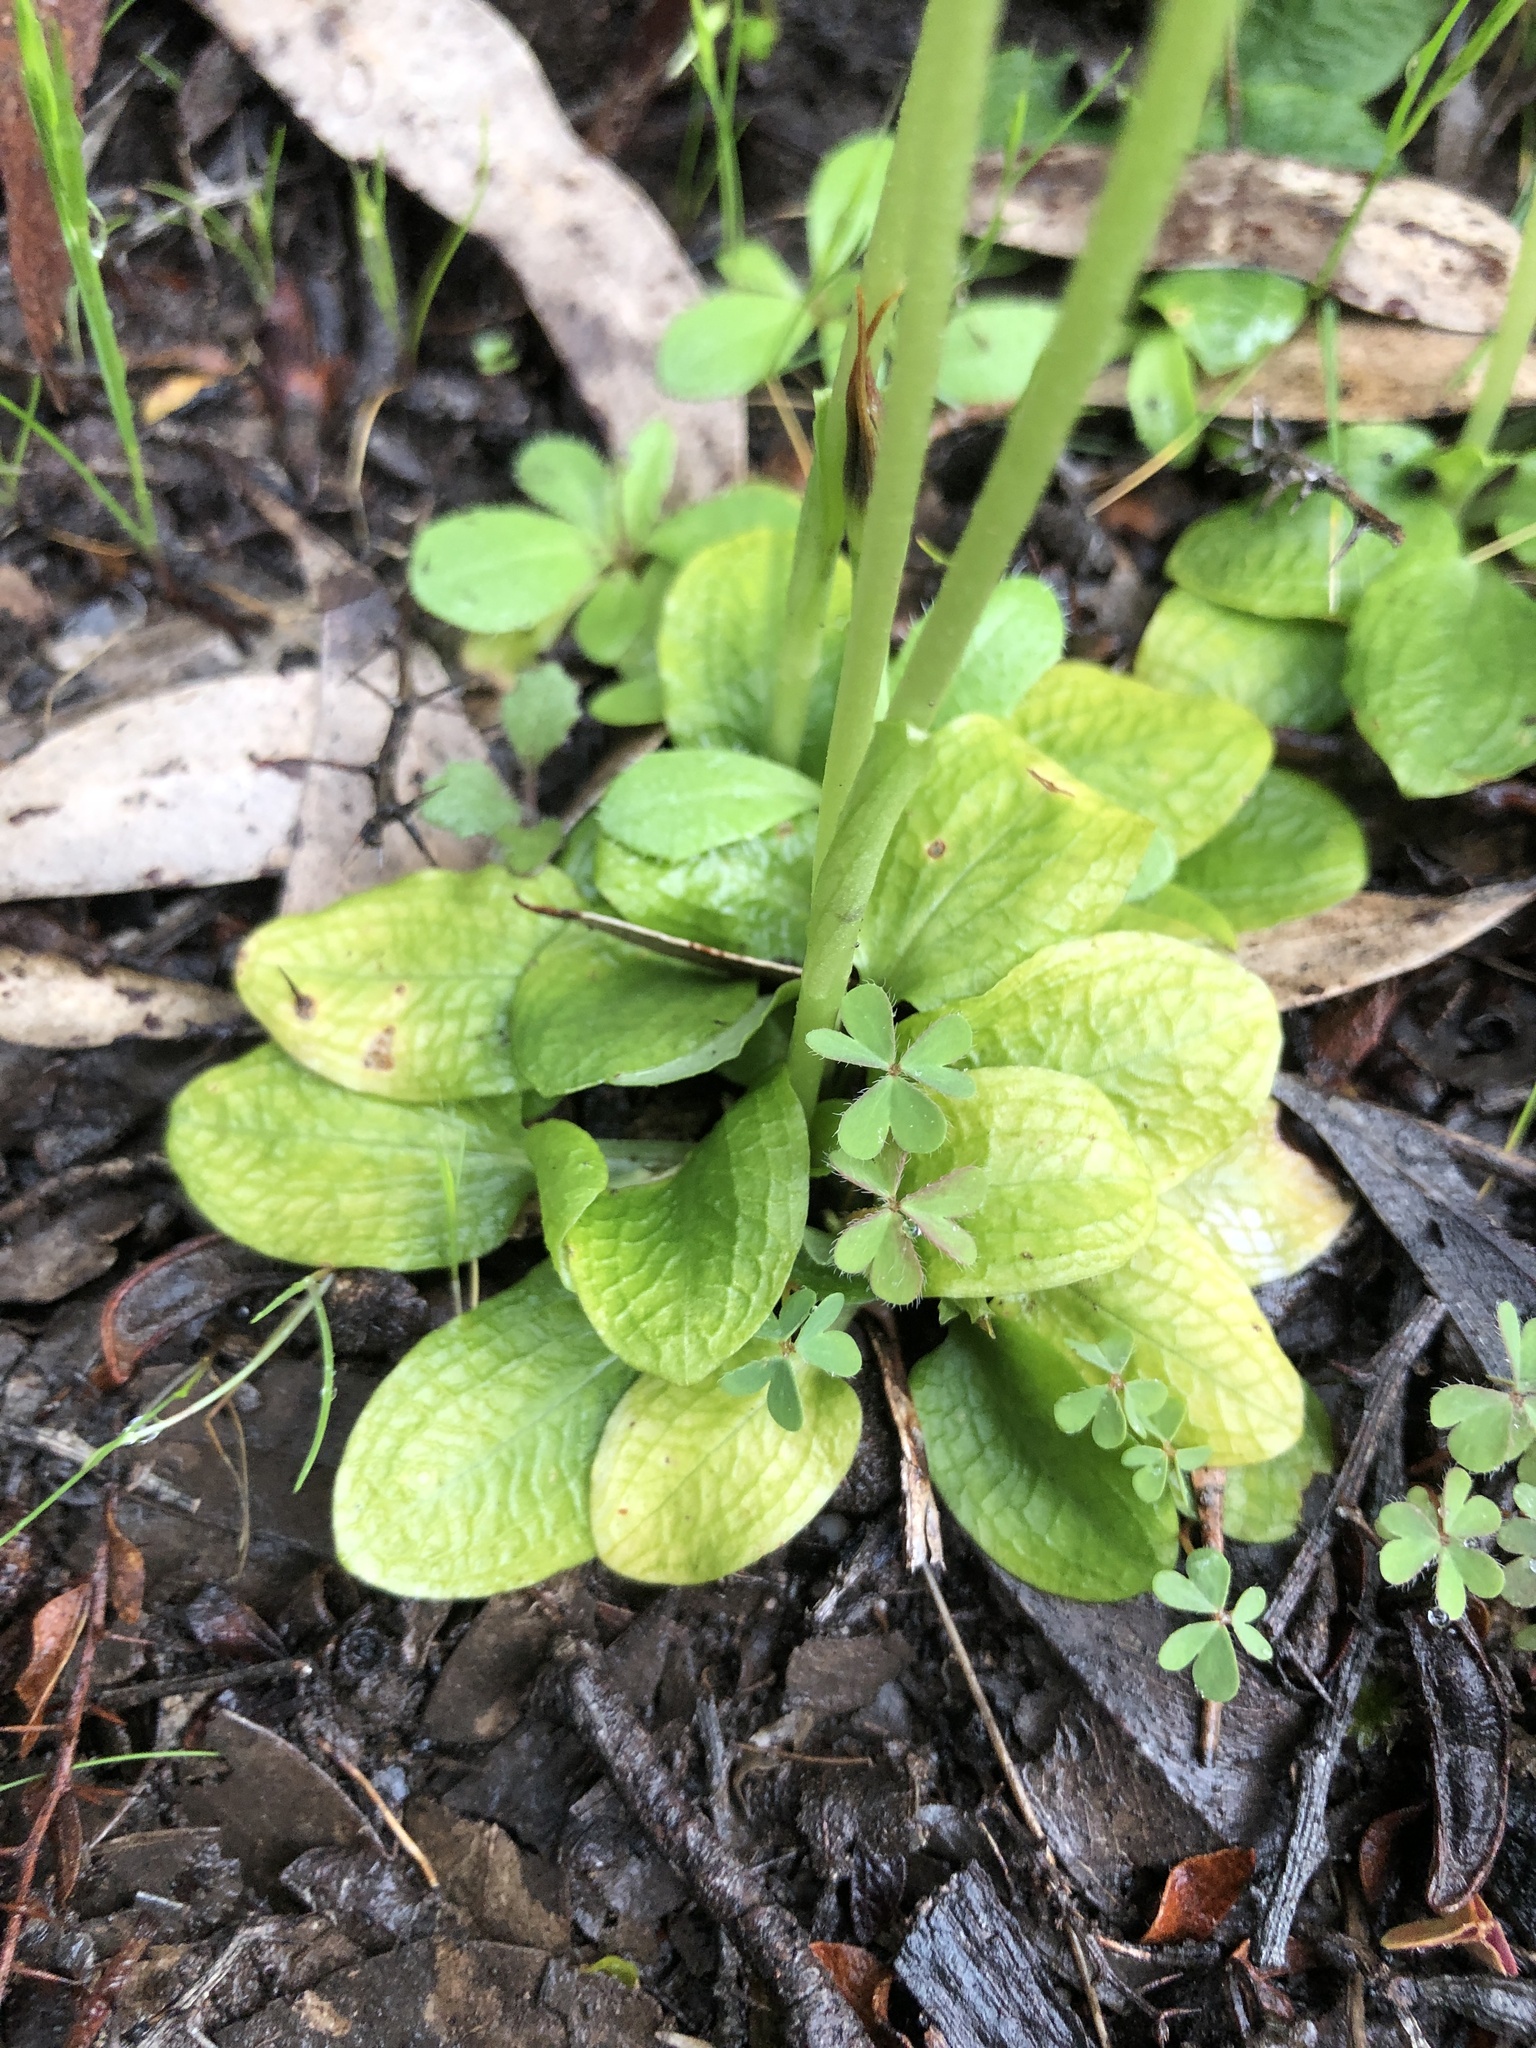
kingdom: Plantae
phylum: Tracheophyta
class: Liliopsida
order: Asparagales
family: Orchidaceae
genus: Pterostylis
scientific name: Pterostylis pedunculata
